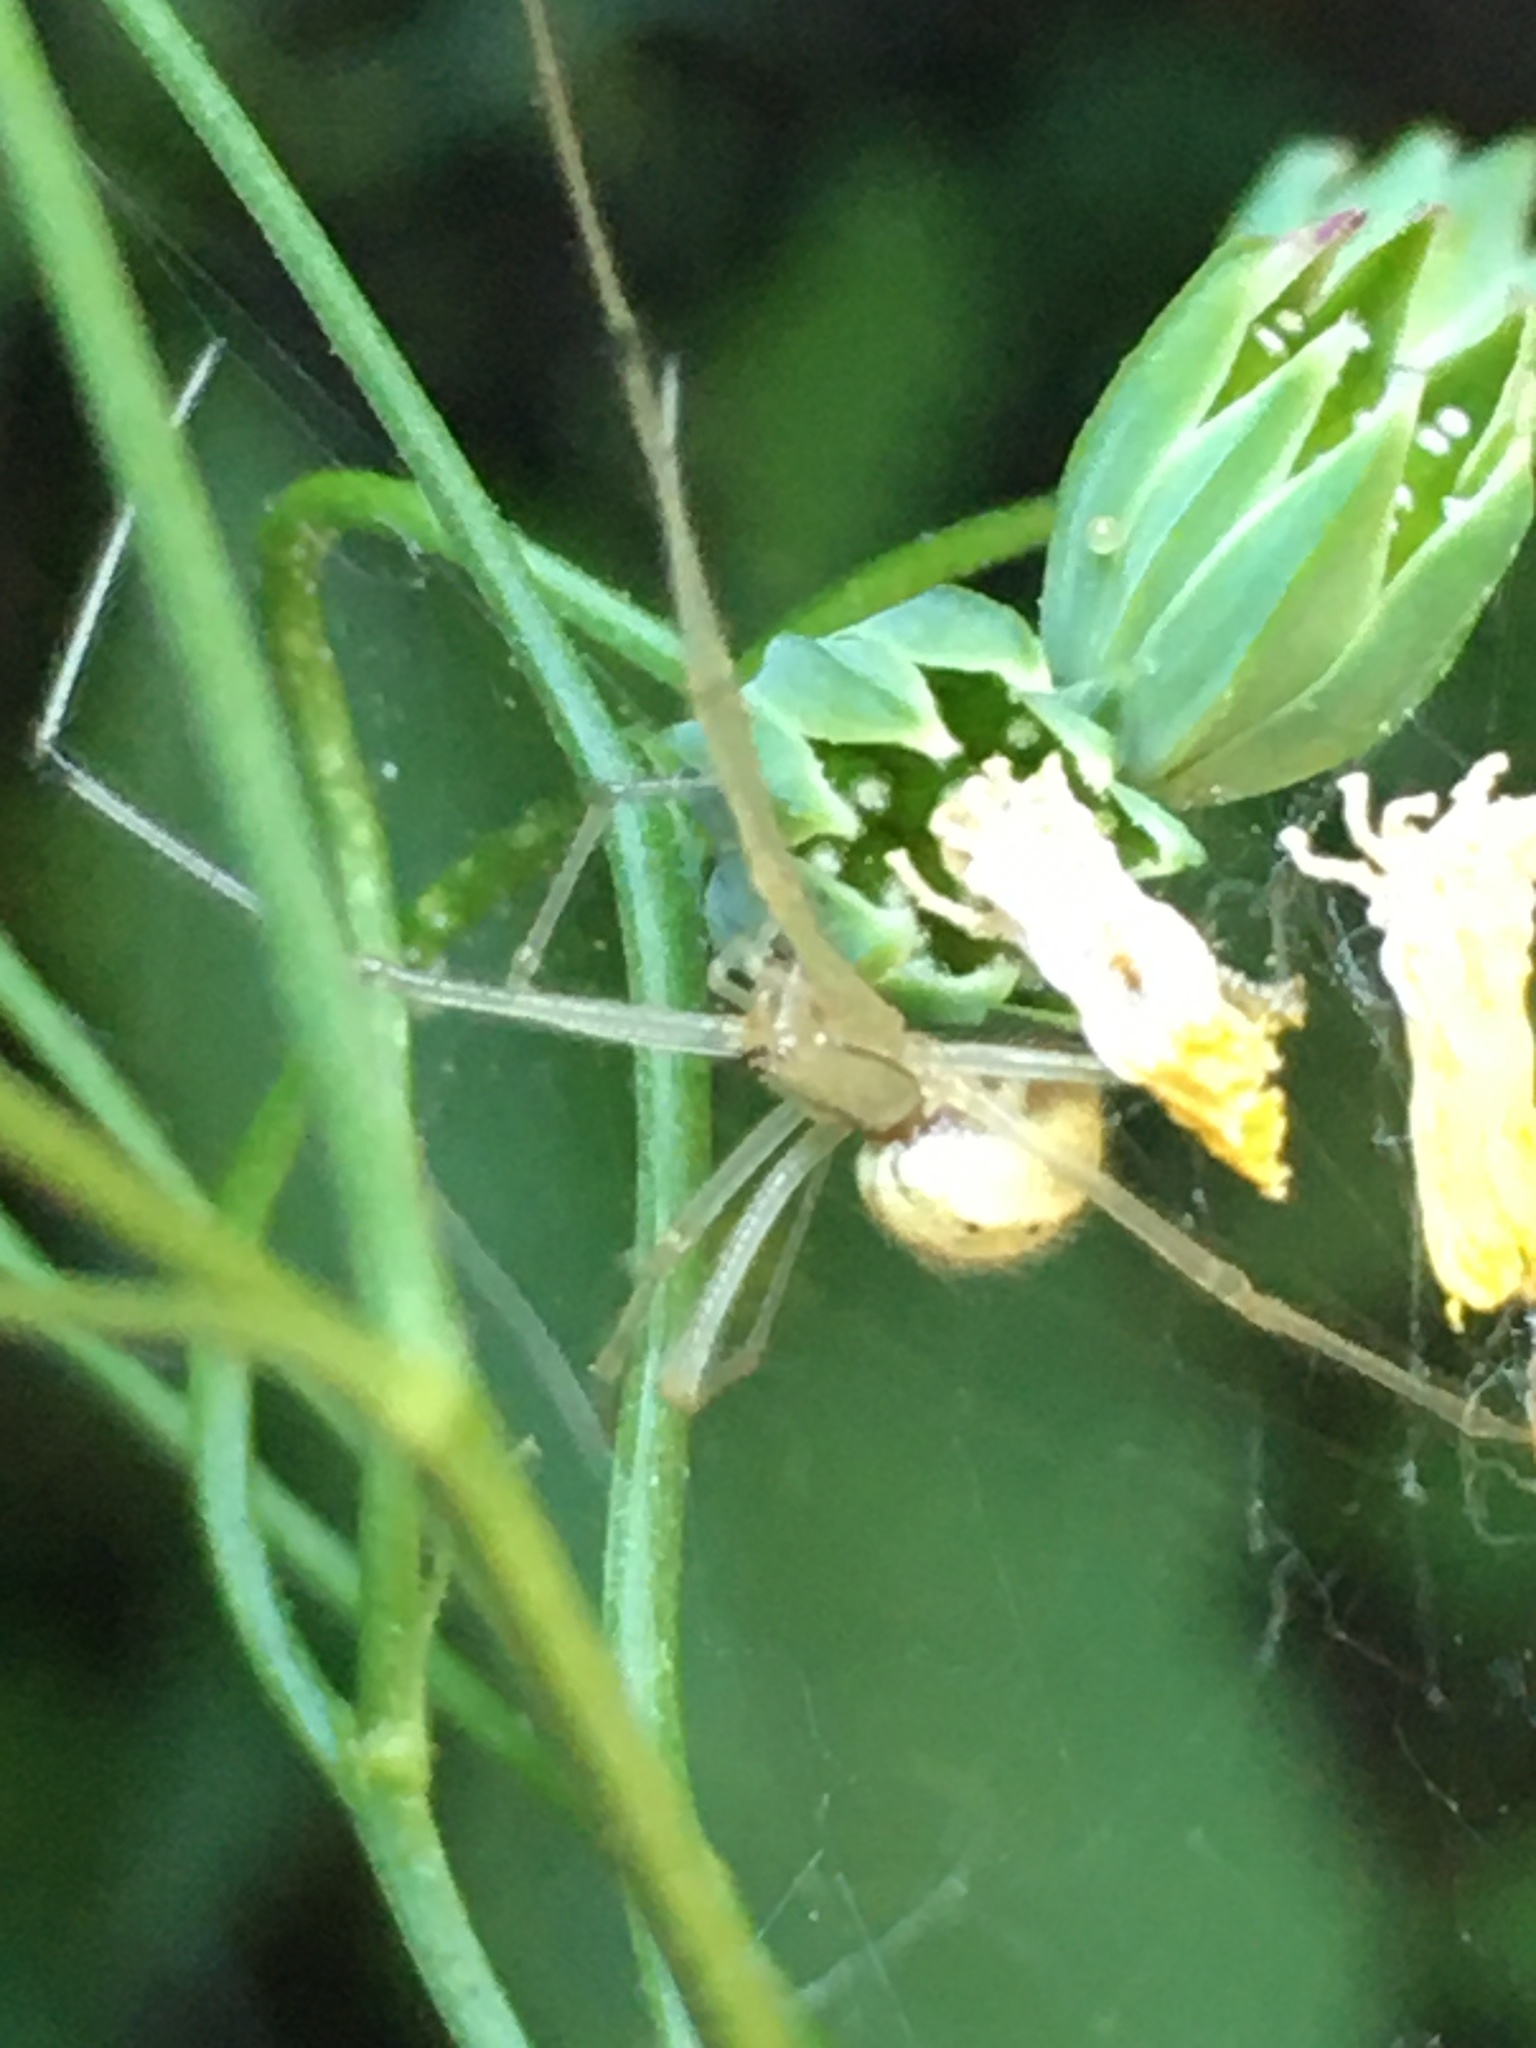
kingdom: Animalia
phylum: Arthropoda
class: Arachnida
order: Araneae
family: Theridiidae
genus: Enoplognatha
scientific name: Enoplognatha ovata
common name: Common candy-striped spider
